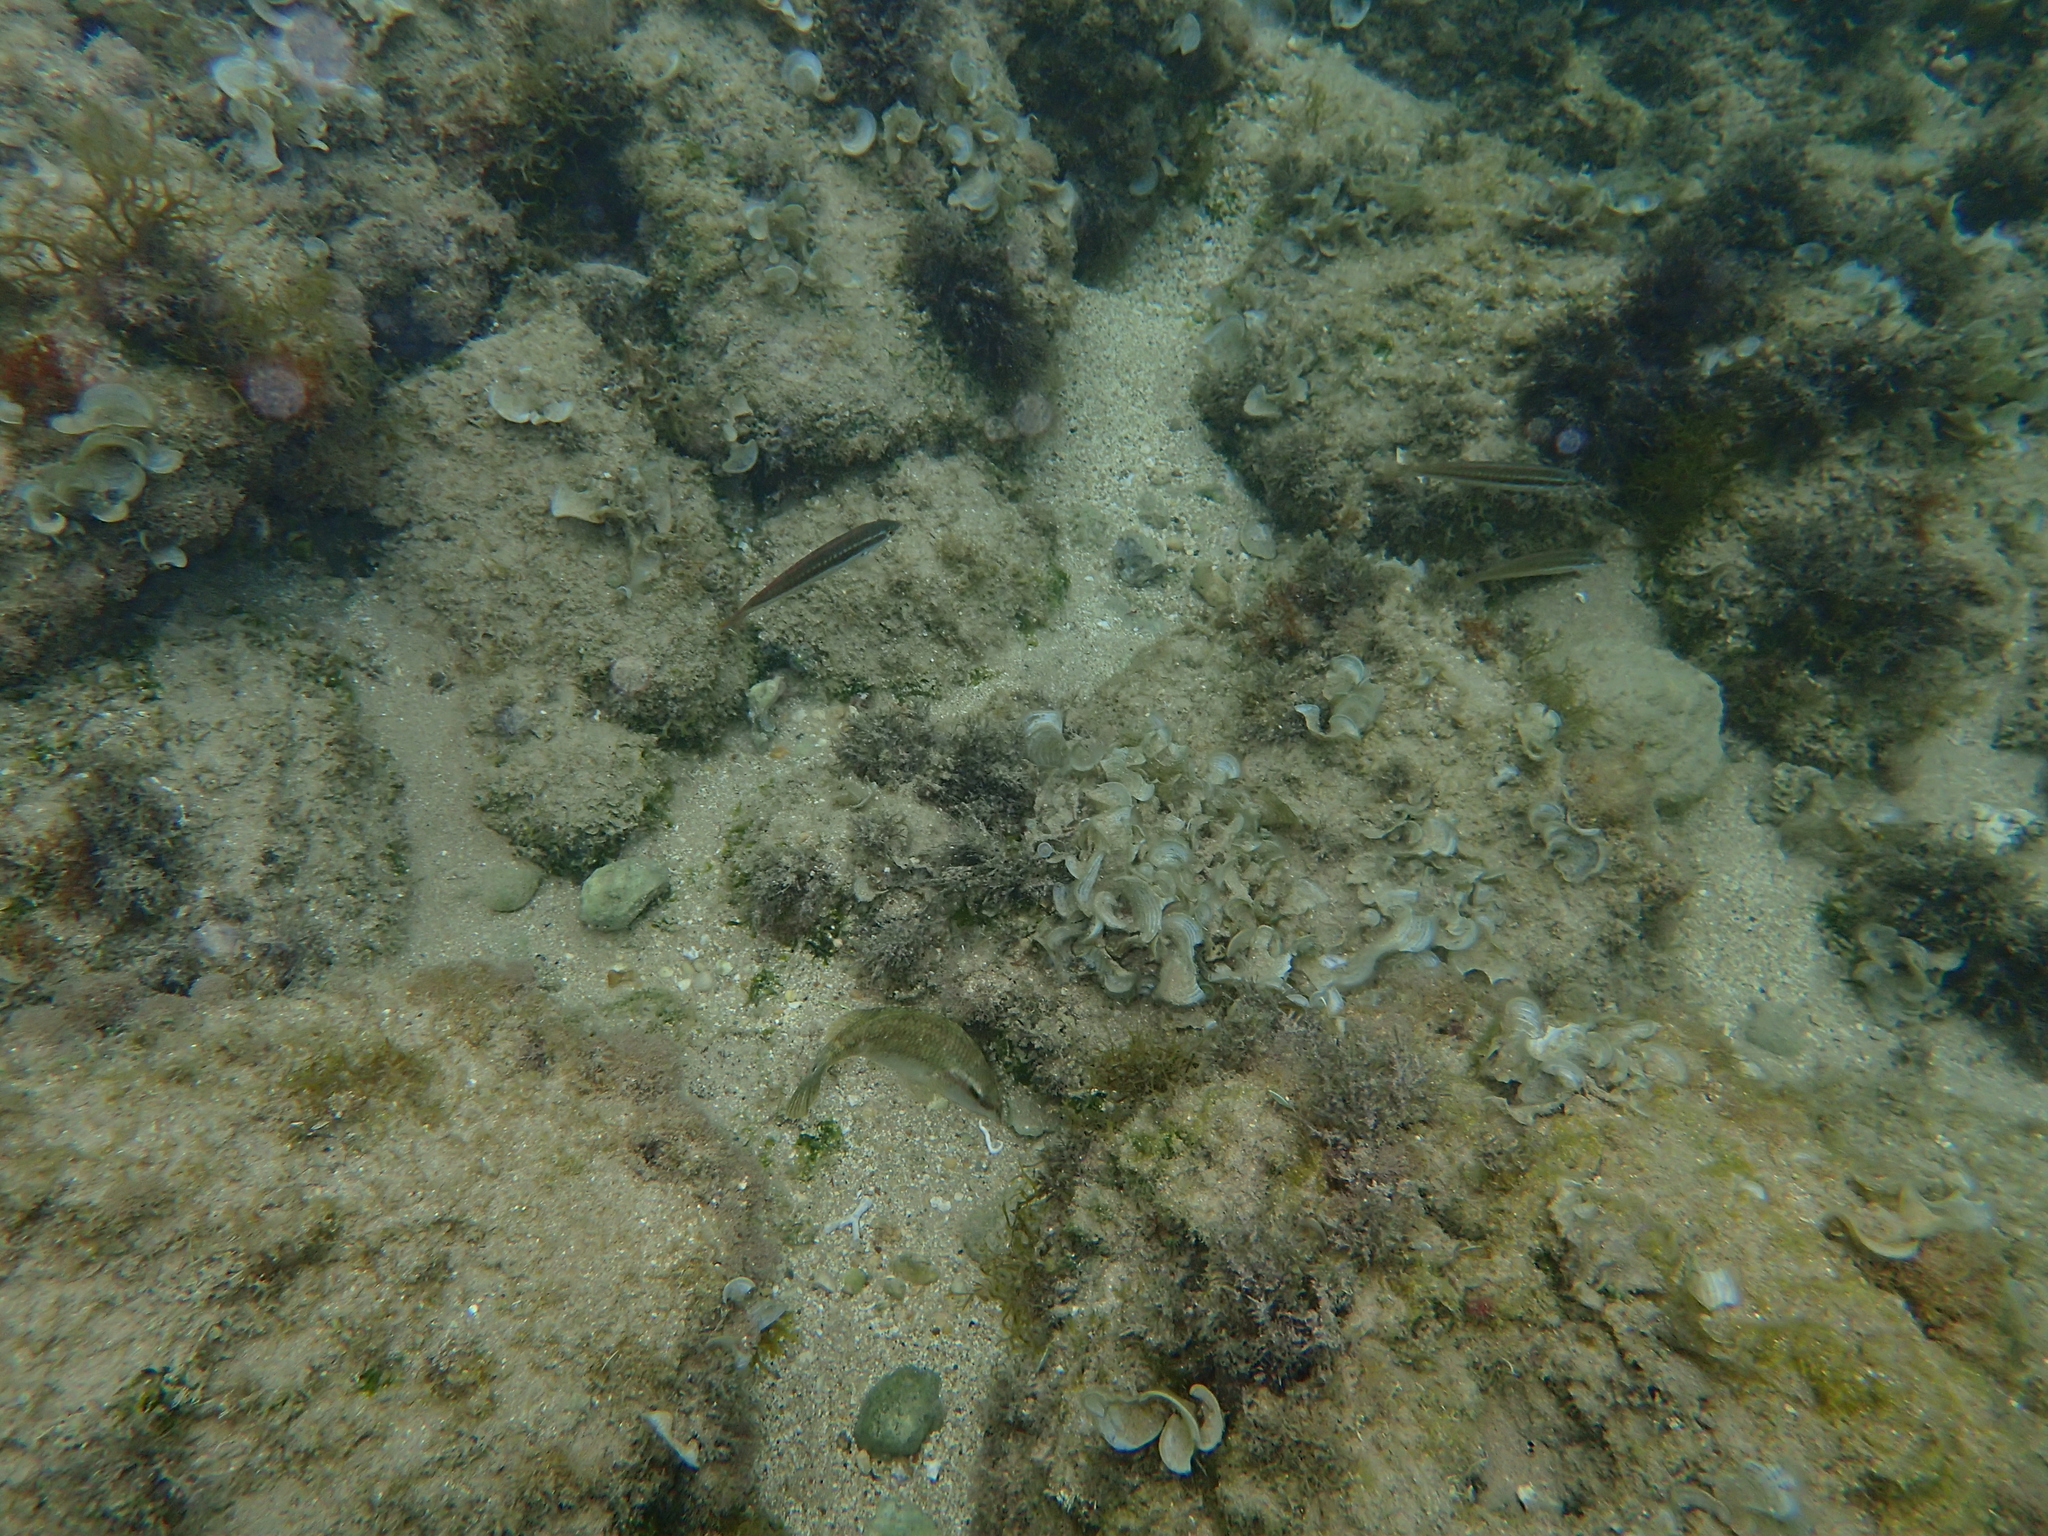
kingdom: Animalia
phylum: Chordata
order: Perciformes
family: Labridae
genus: Symphodus
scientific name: Symphodus tinca
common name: Peacock wrasse
